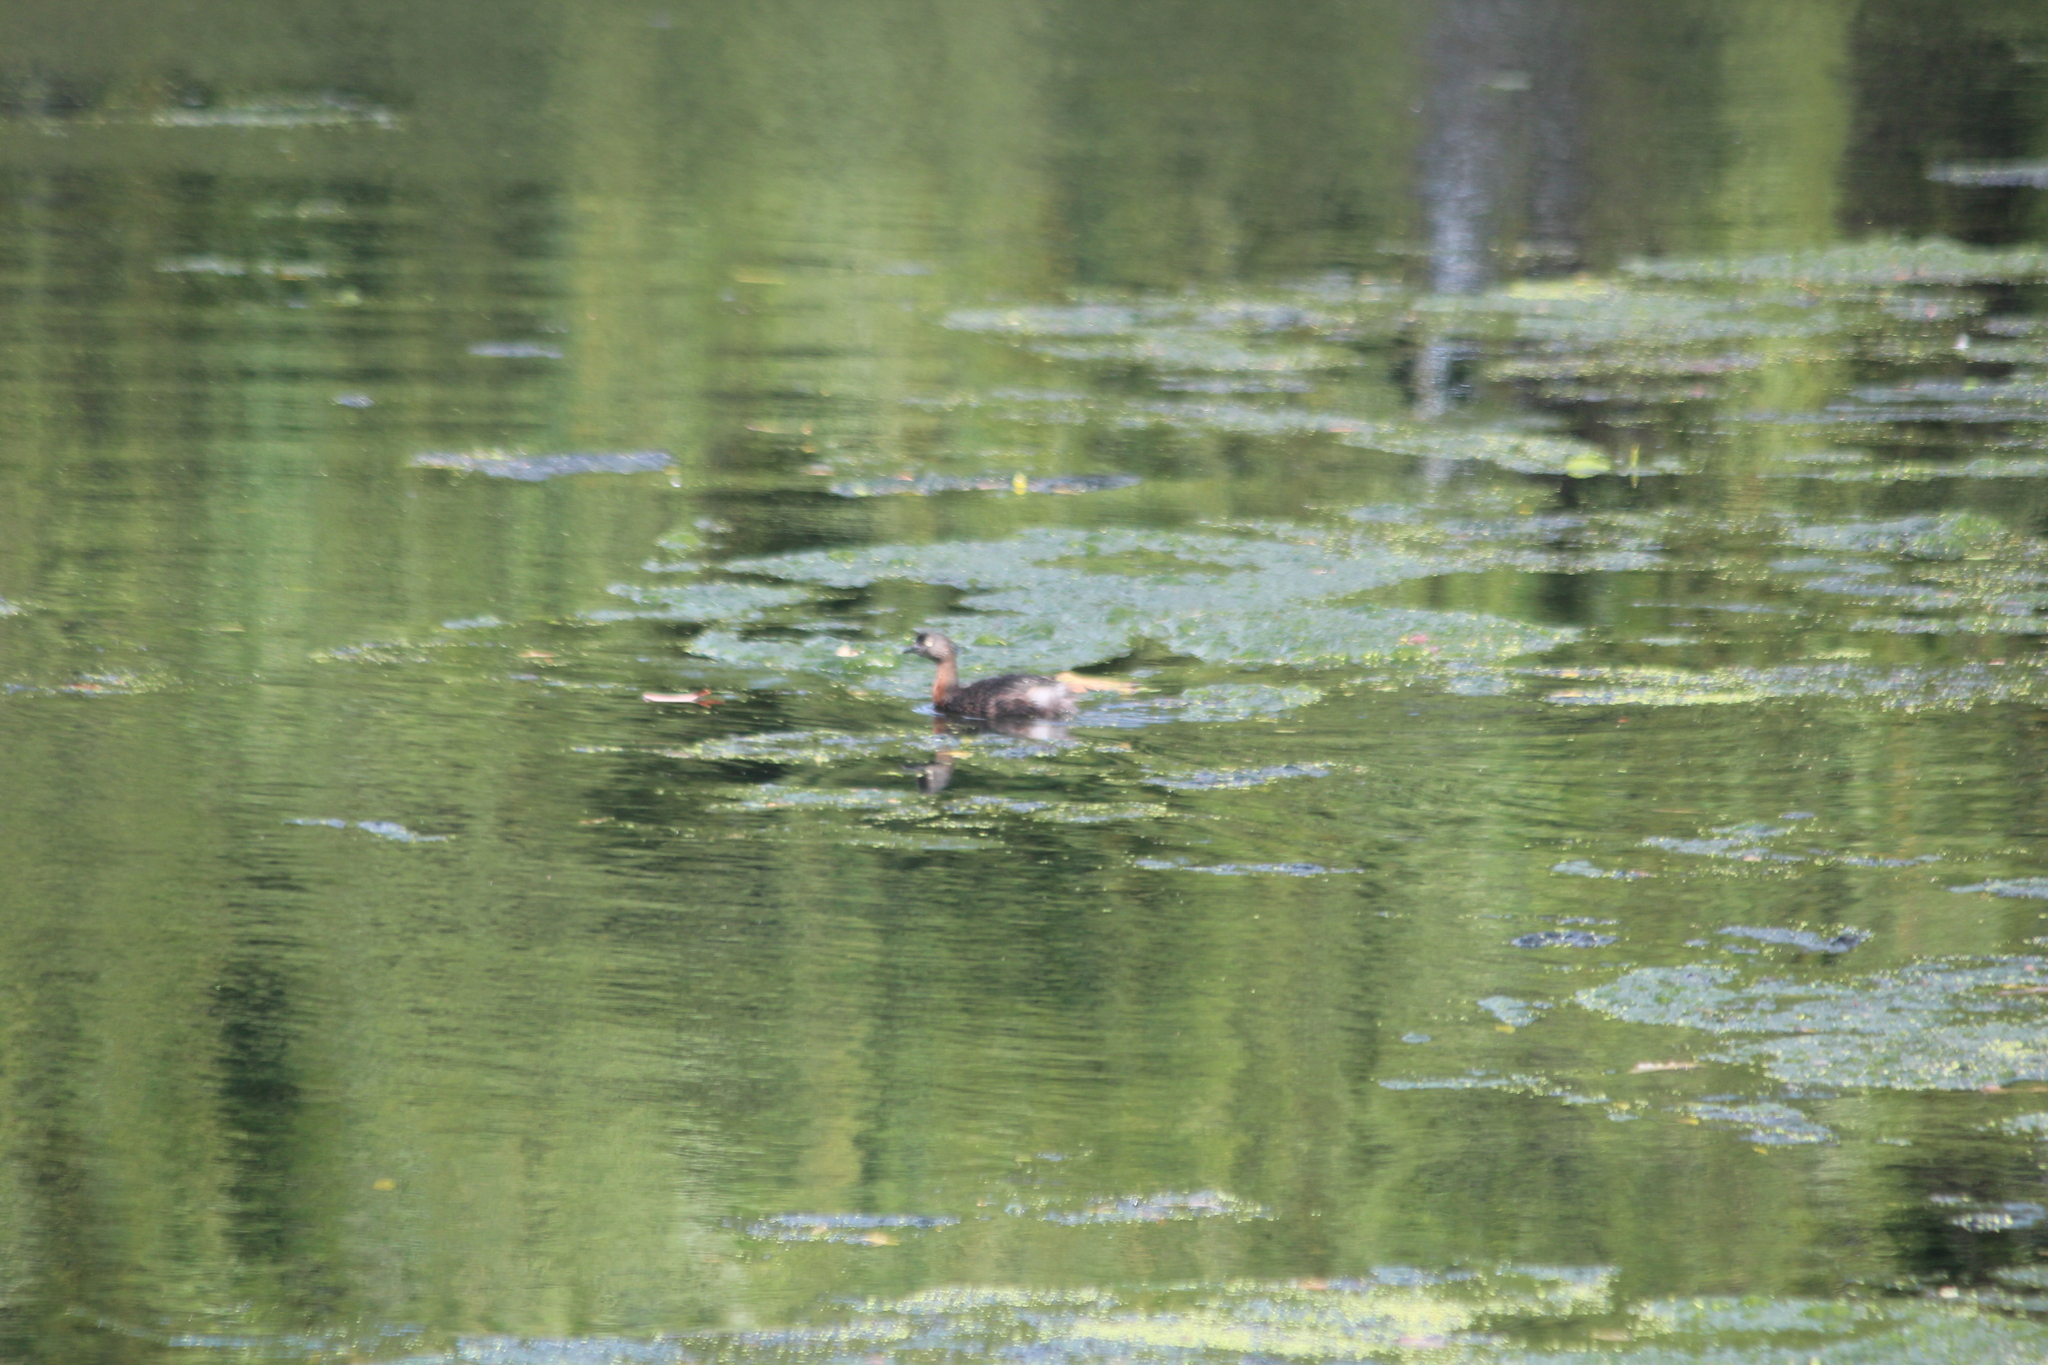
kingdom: Animalia
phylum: Chordata
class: Aves
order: Podicipediformes
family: Podicipedidae
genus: Poliocephalus
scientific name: Poliocephalus rufopectus
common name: New zealand grebe
